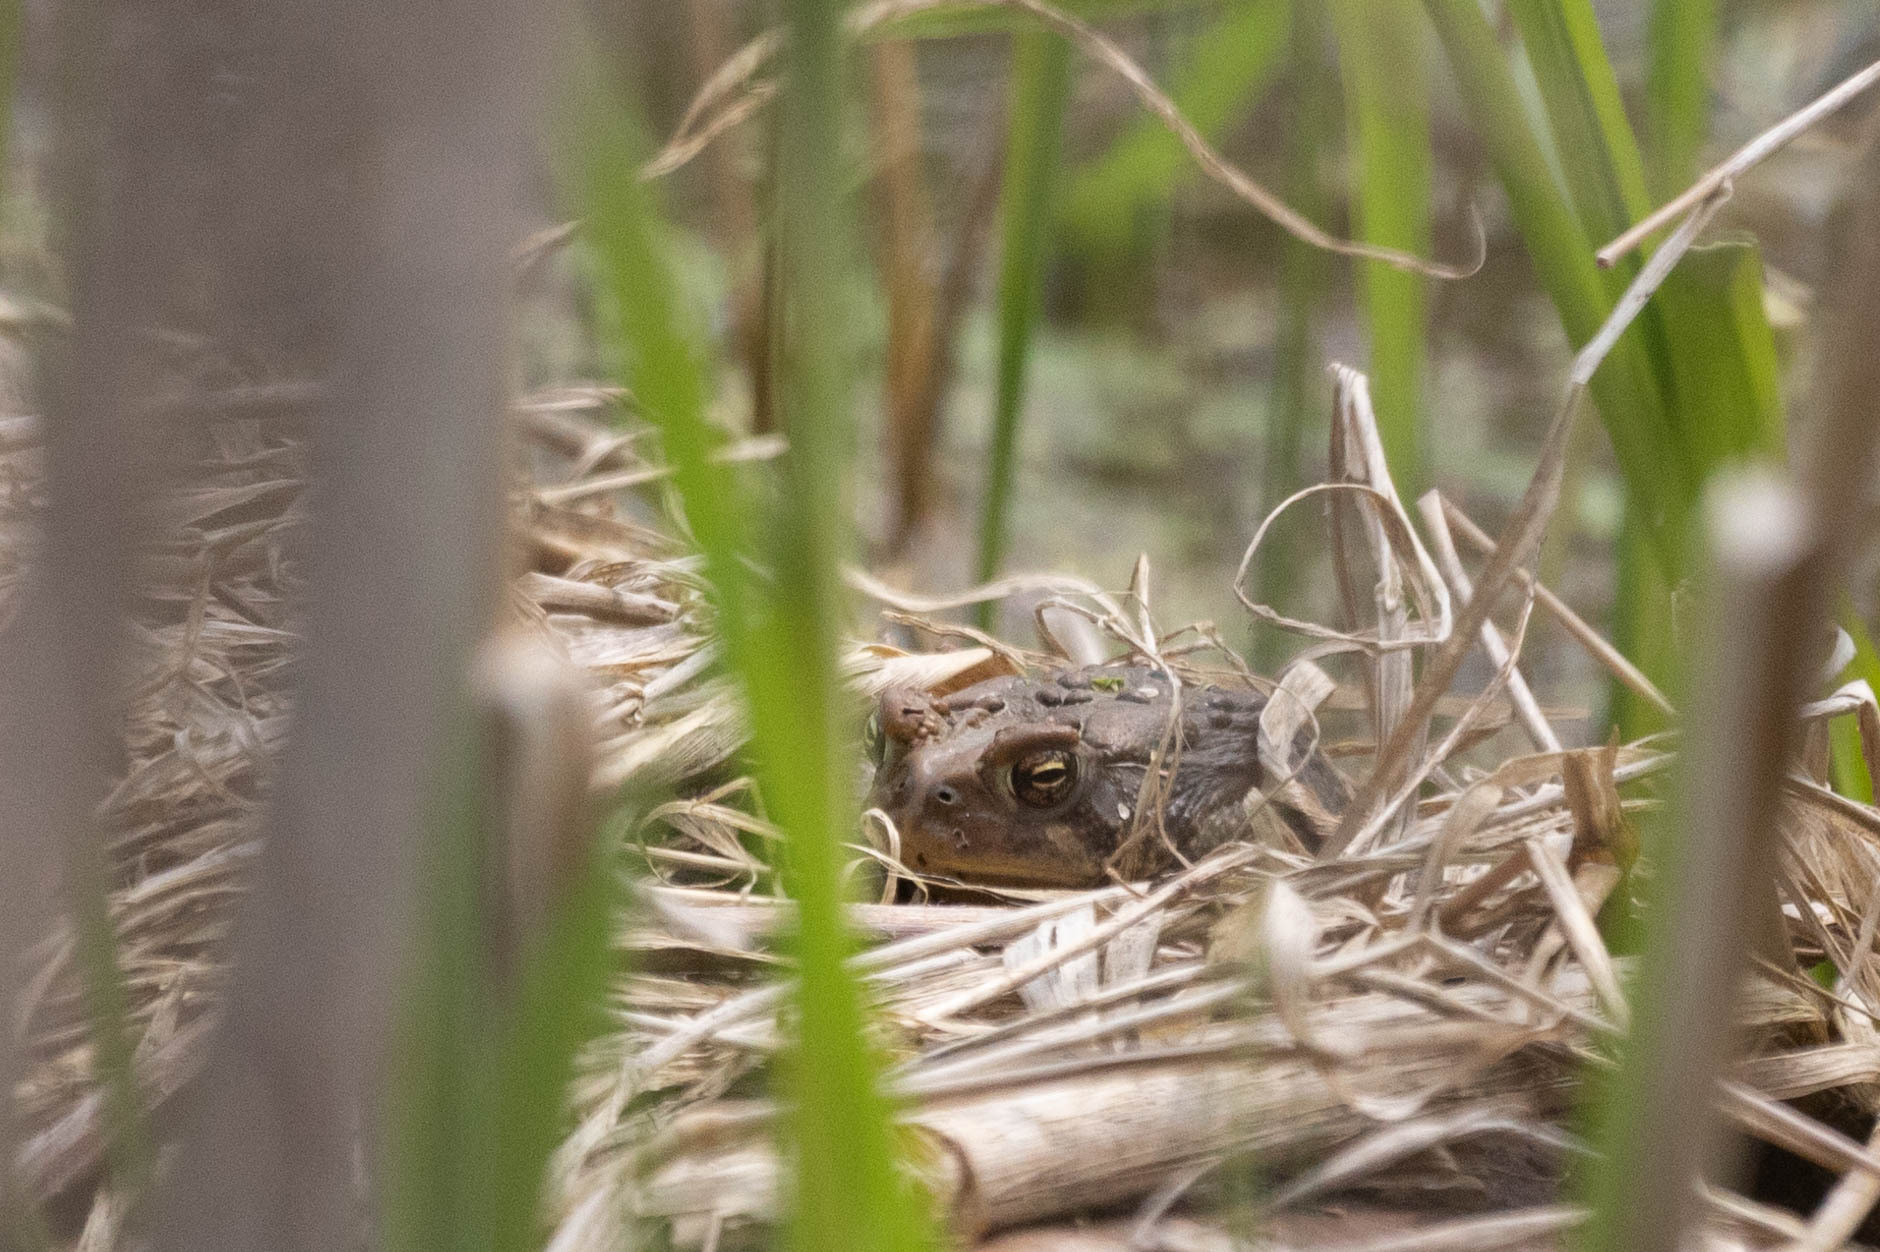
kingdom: Animalia
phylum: Chordata
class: Amphibia
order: Anura
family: Bufonidae
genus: Anaxyrus
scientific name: Anaxyrus americanus
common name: American toad
